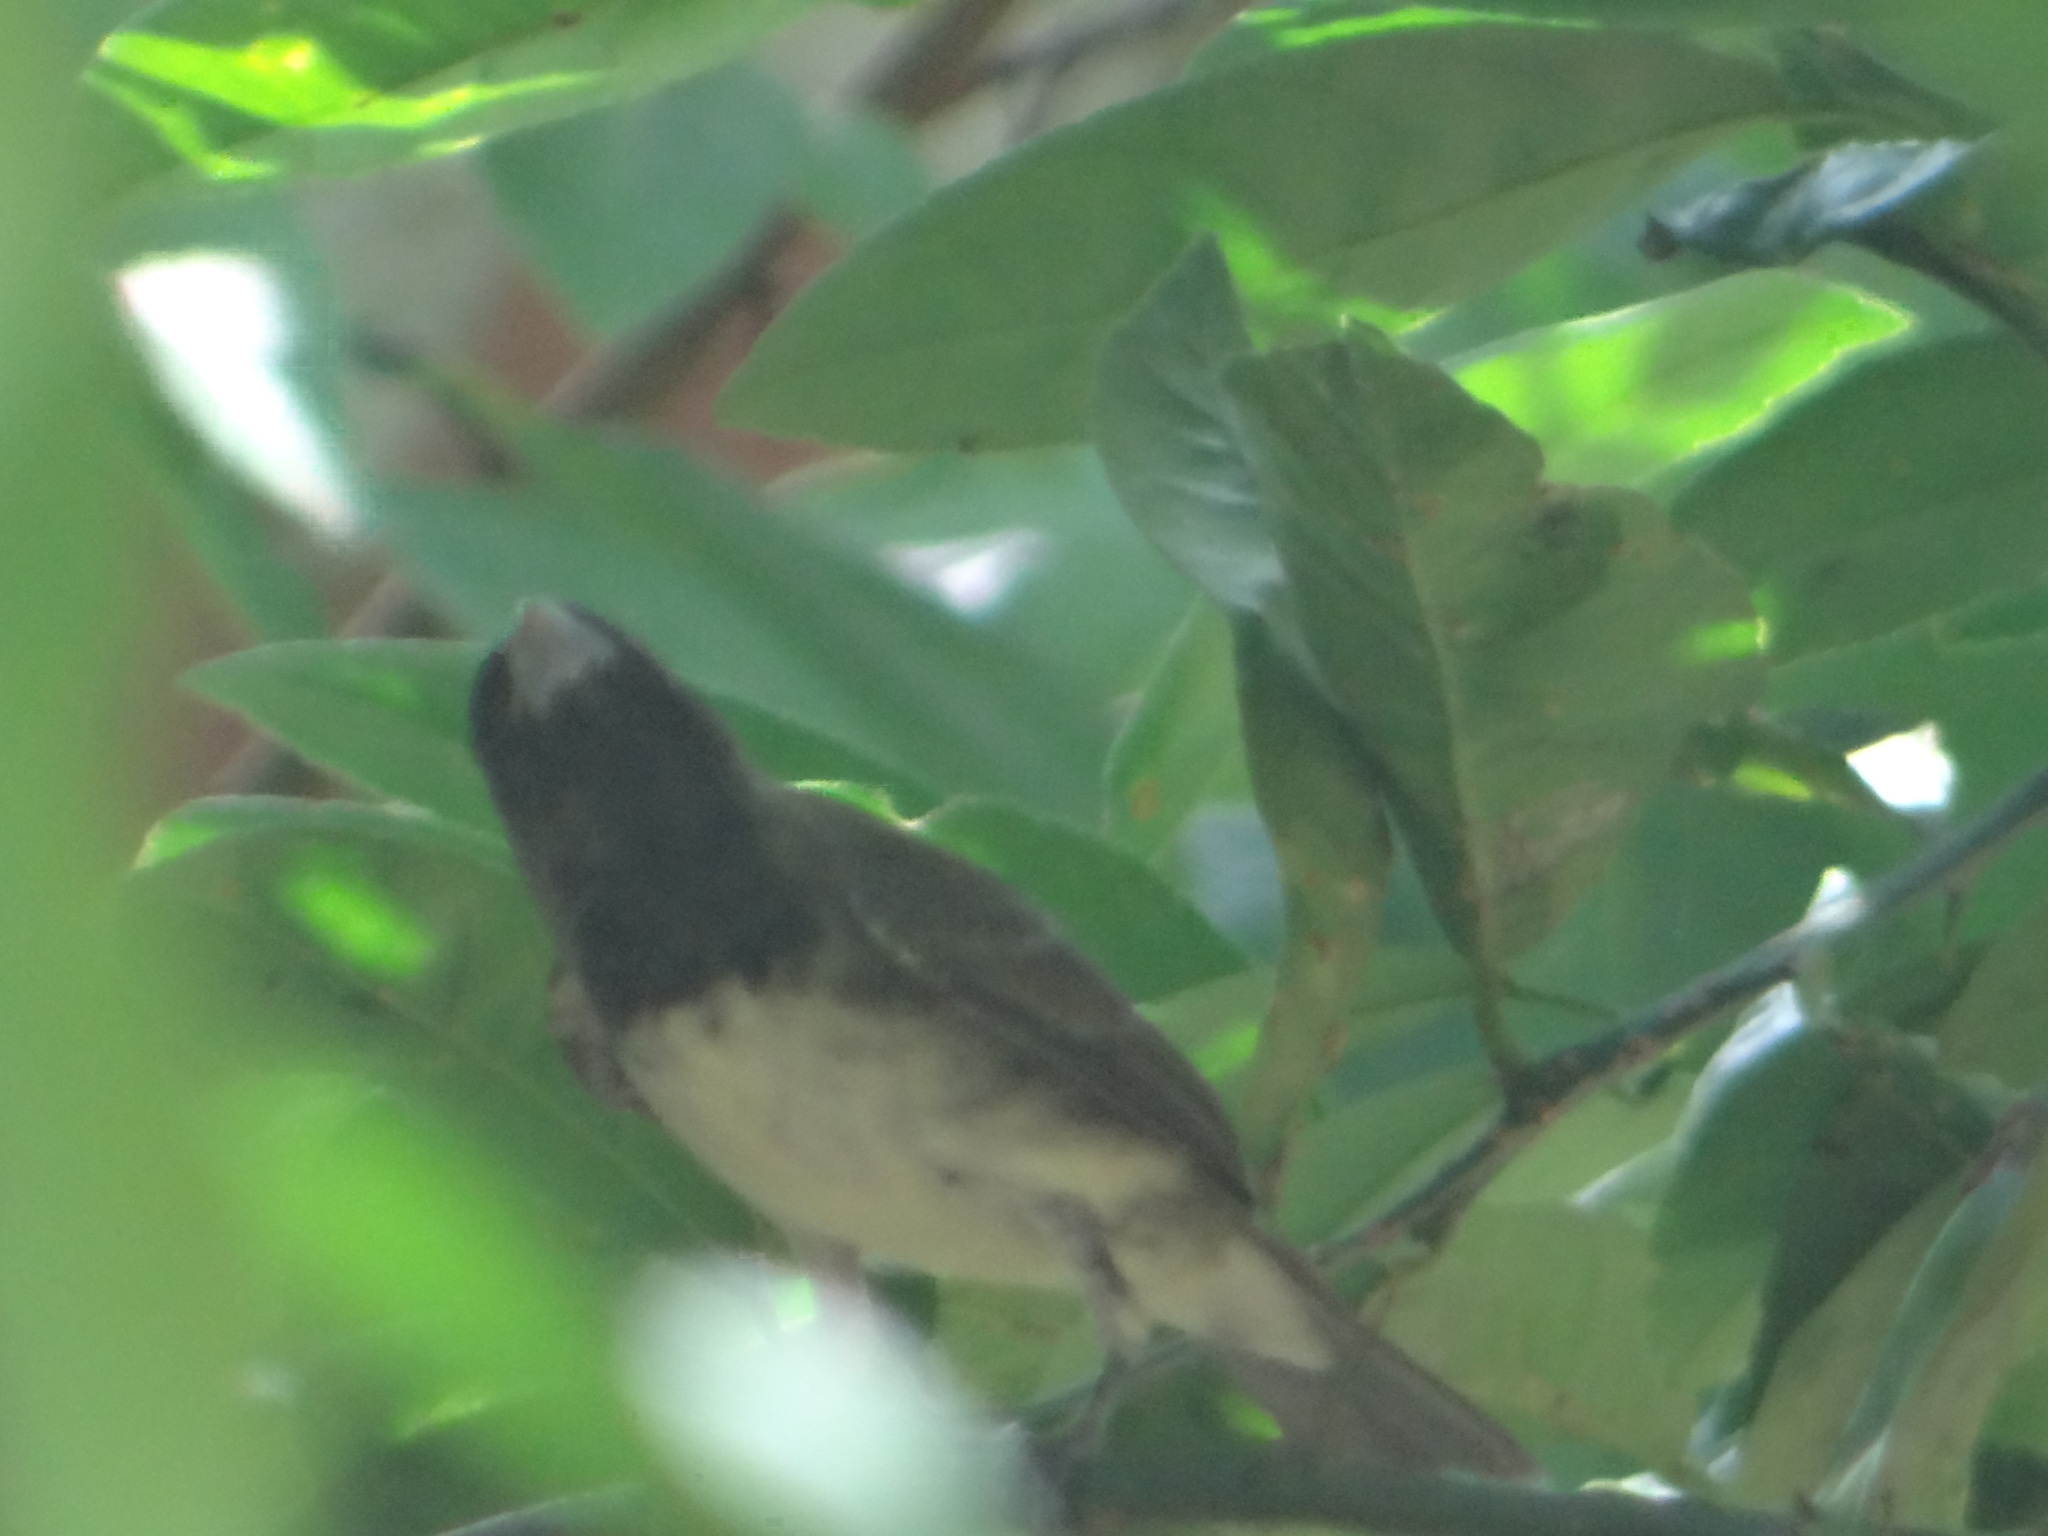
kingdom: Animalia
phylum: Chordata
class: Aves
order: Passeriformes
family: Thraupidae
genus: Sporophila
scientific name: Sporophila nigricollis
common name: Yellow-bellied seedeater
